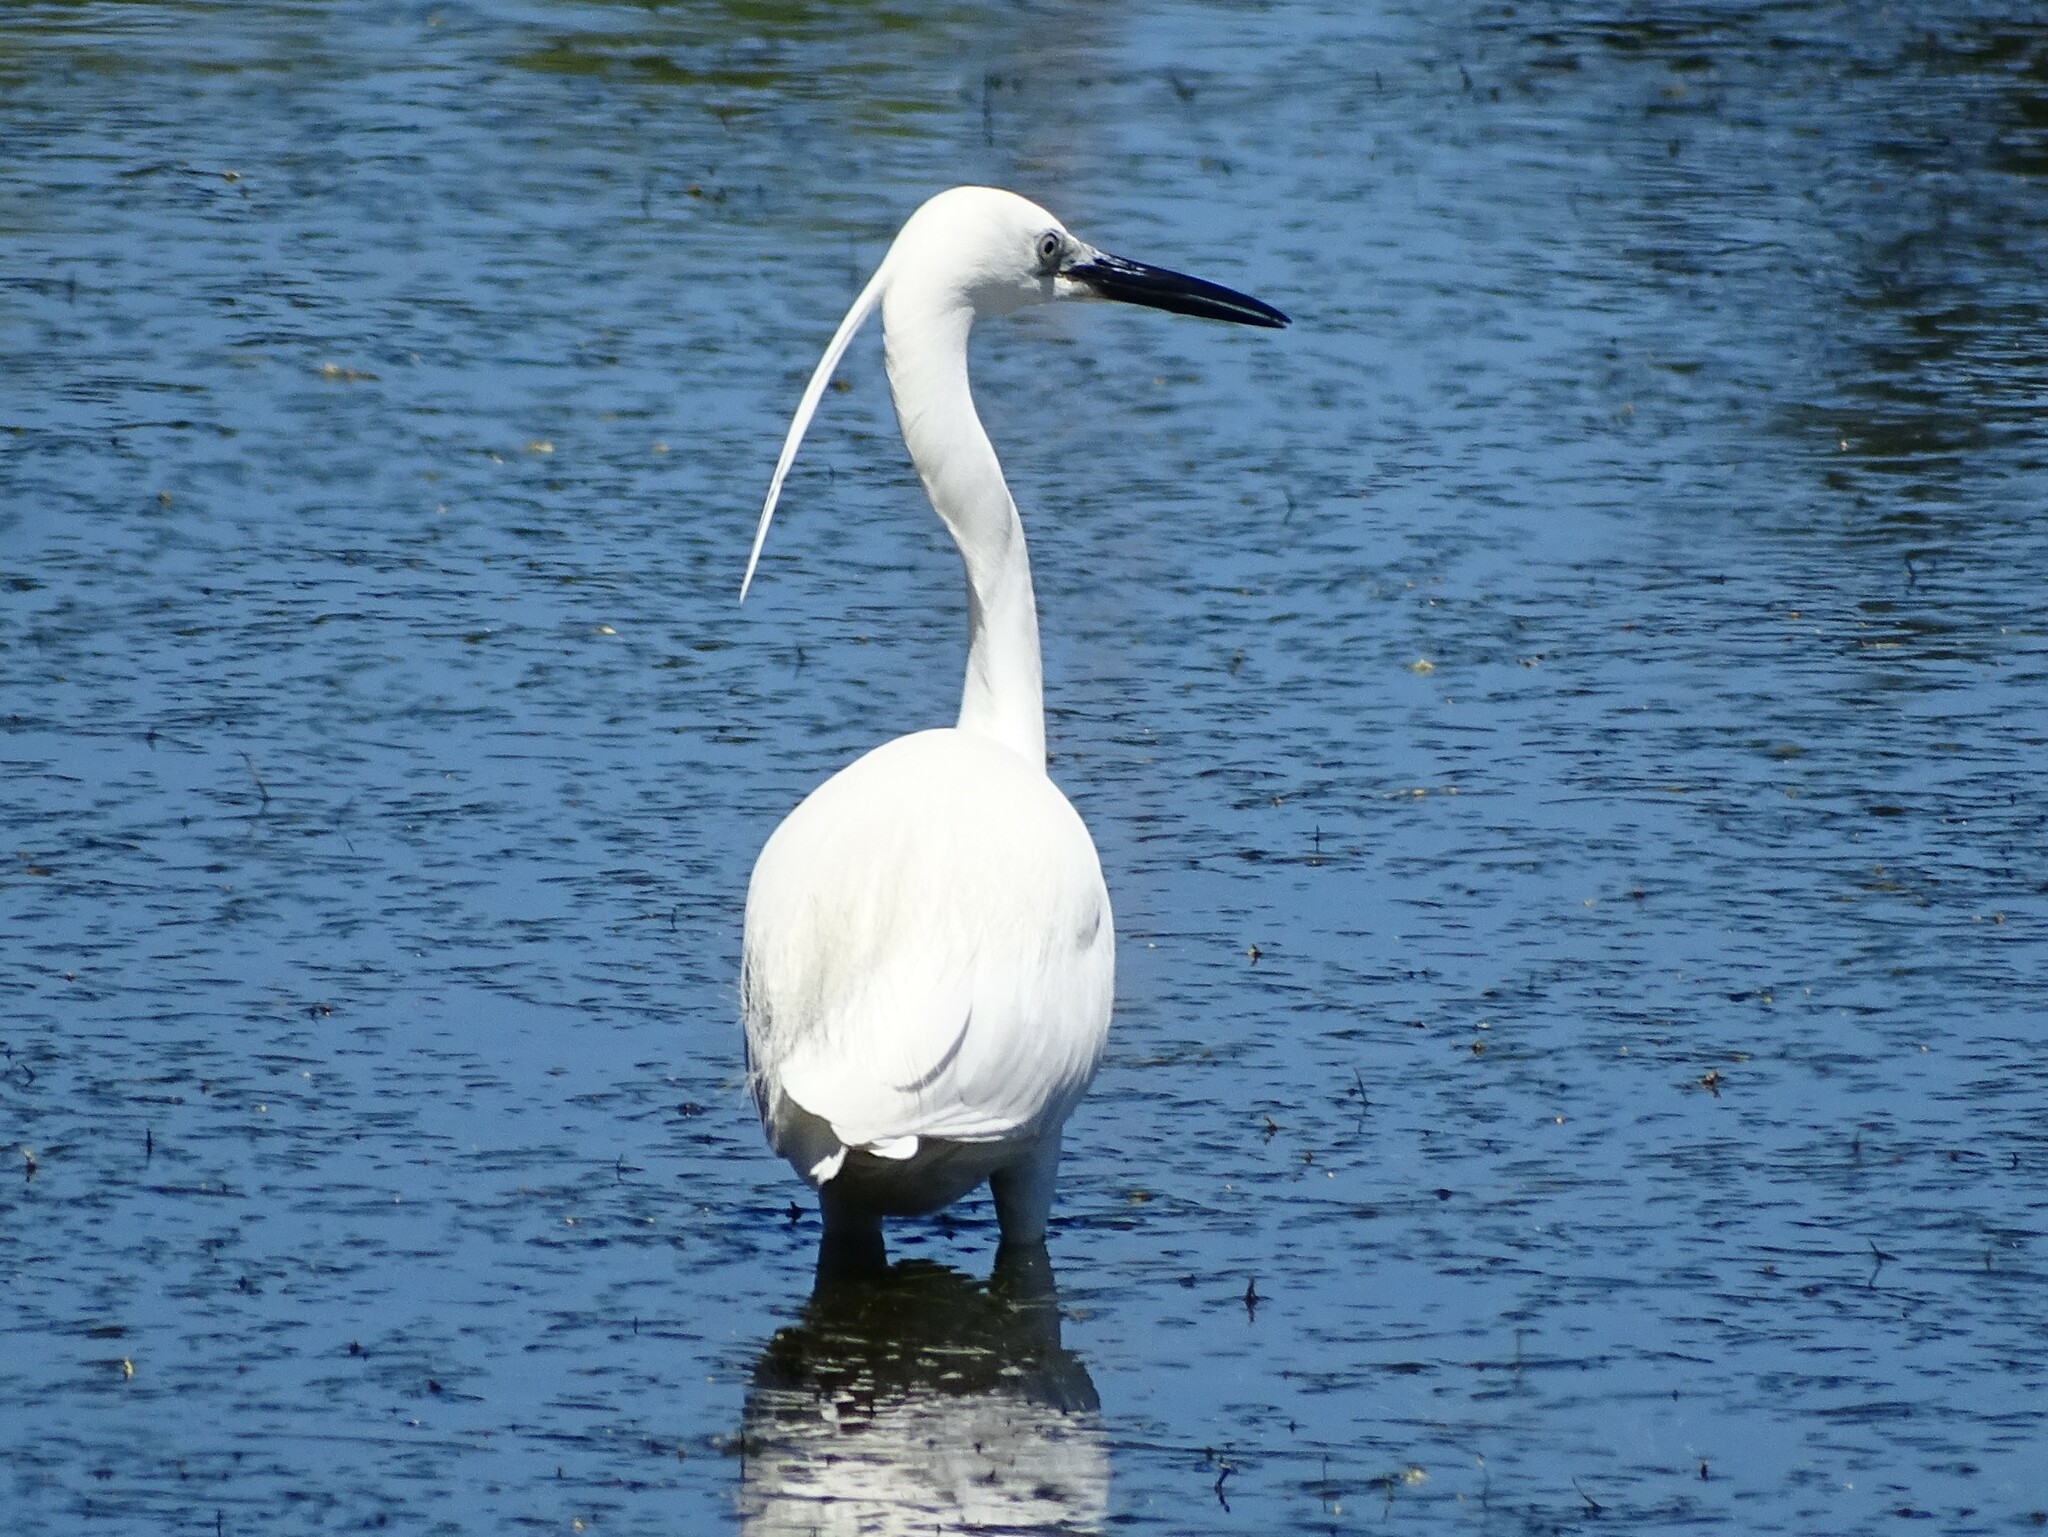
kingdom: Animalia
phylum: Chordata
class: Aves
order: Pelecaniformes
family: Ardeidae
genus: Egretta
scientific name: Egretta garzetta
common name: Little egret
